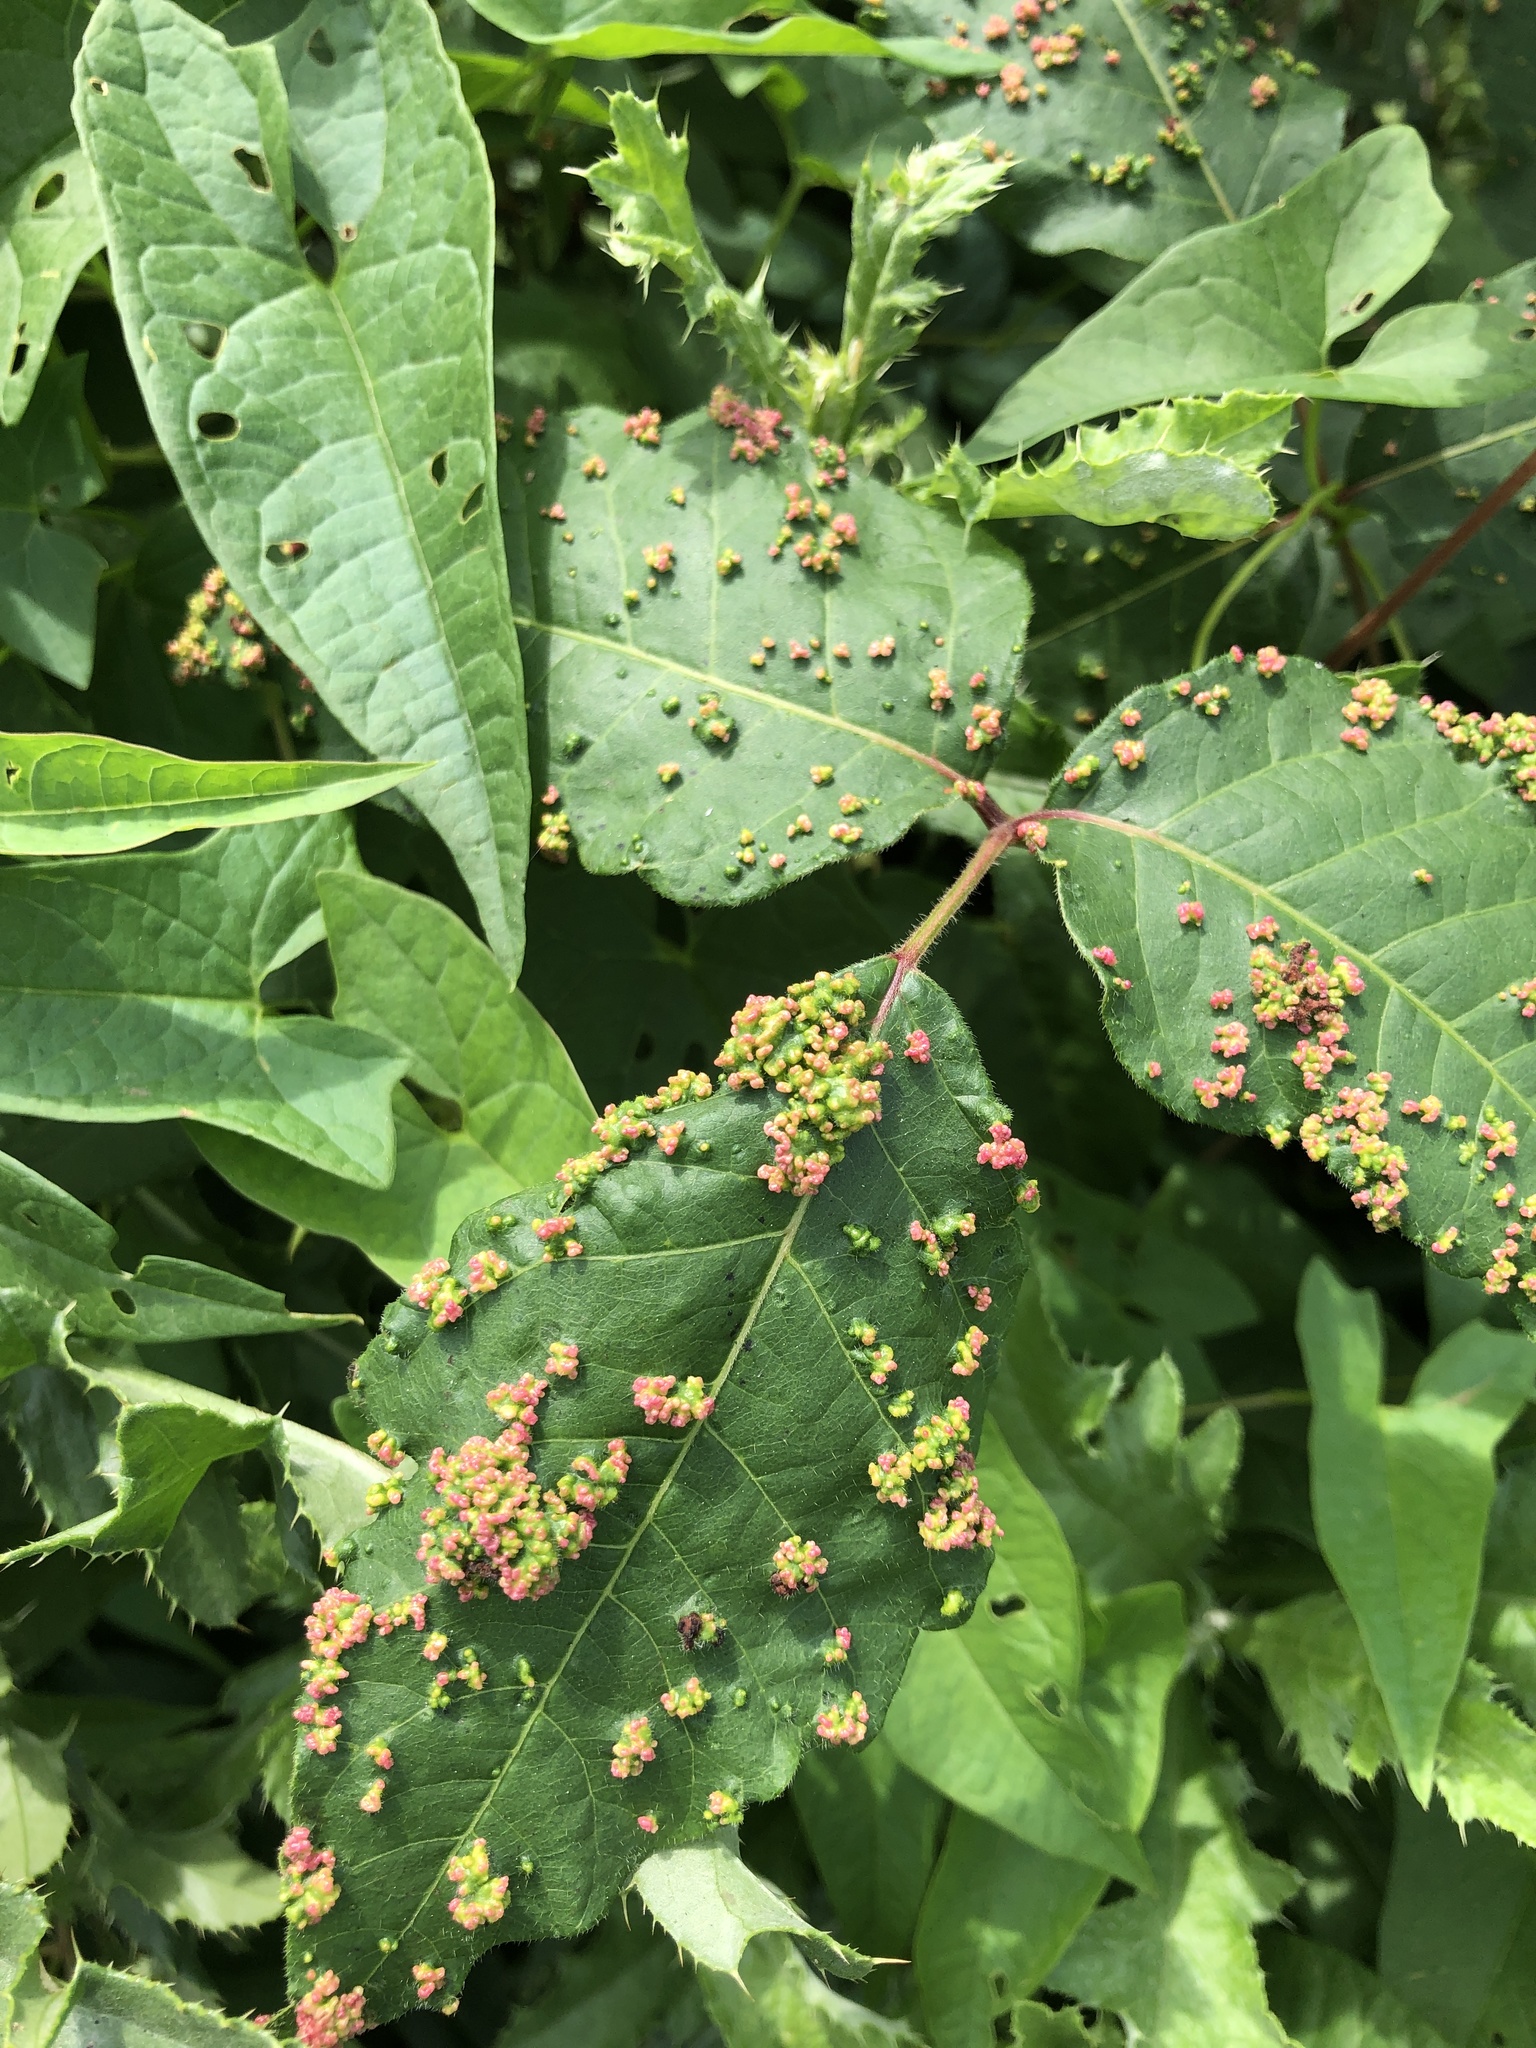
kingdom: Animalia
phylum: Arthropoda
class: Arachnida
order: Trombidiformes
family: Eriophyidae
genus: Aculops
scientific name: Aculops
